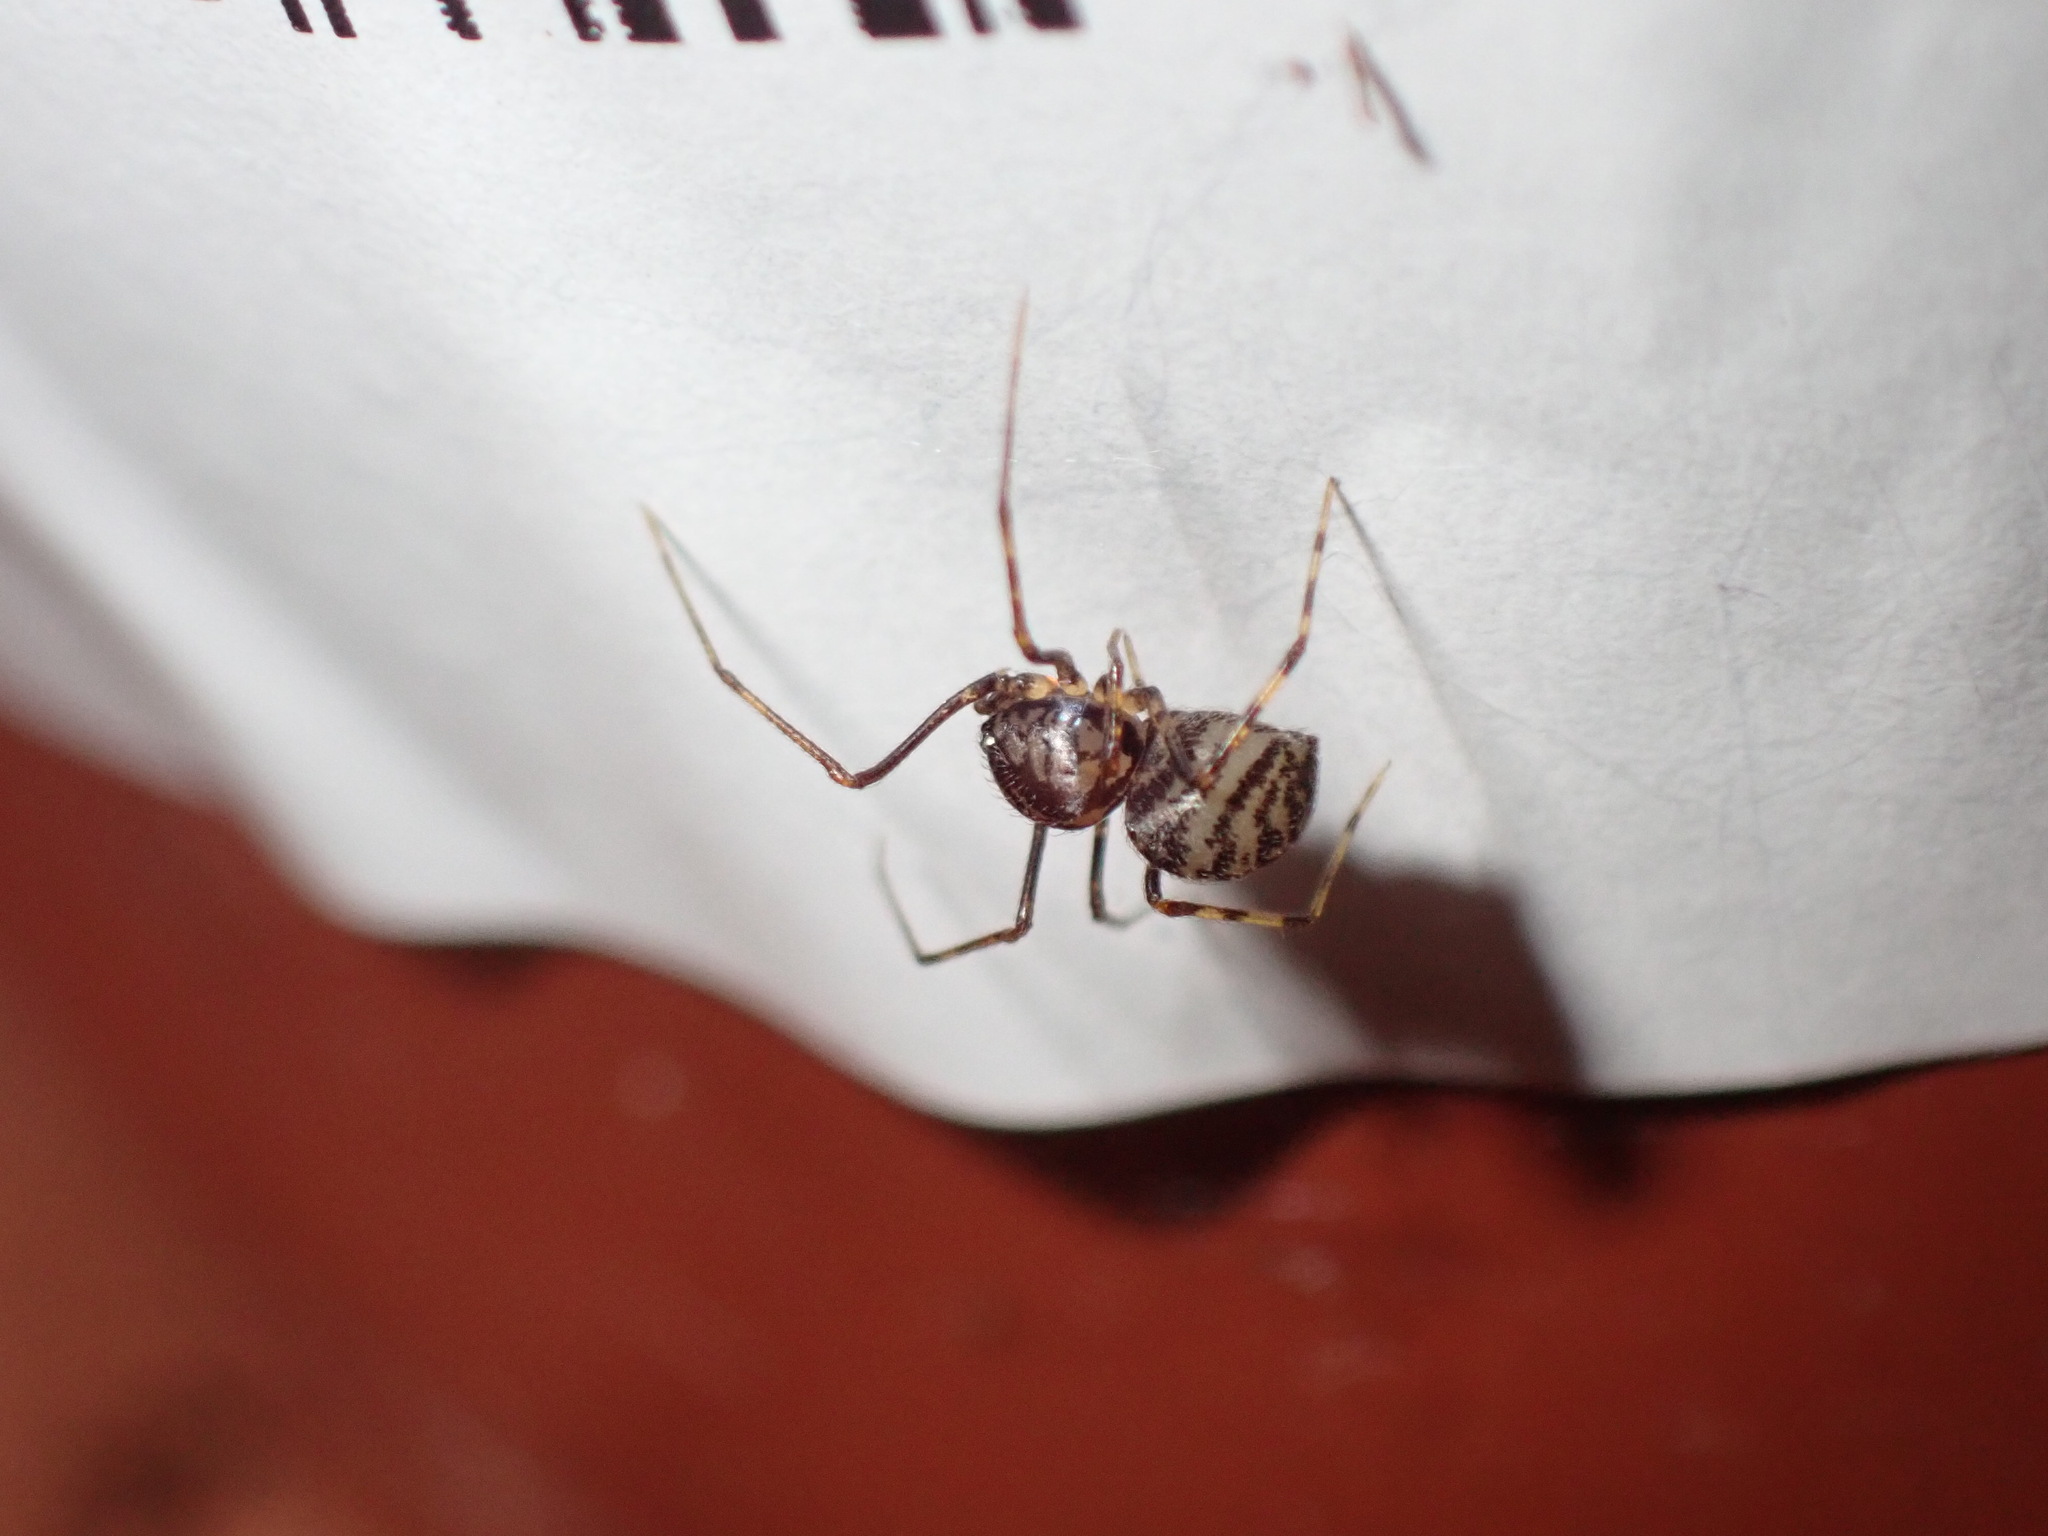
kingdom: Animalia
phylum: Arthropoda
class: Arachnida
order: Araneae
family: Scytodidae
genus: Scytodes
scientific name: Scytodes fusca
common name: Spitting spiders
